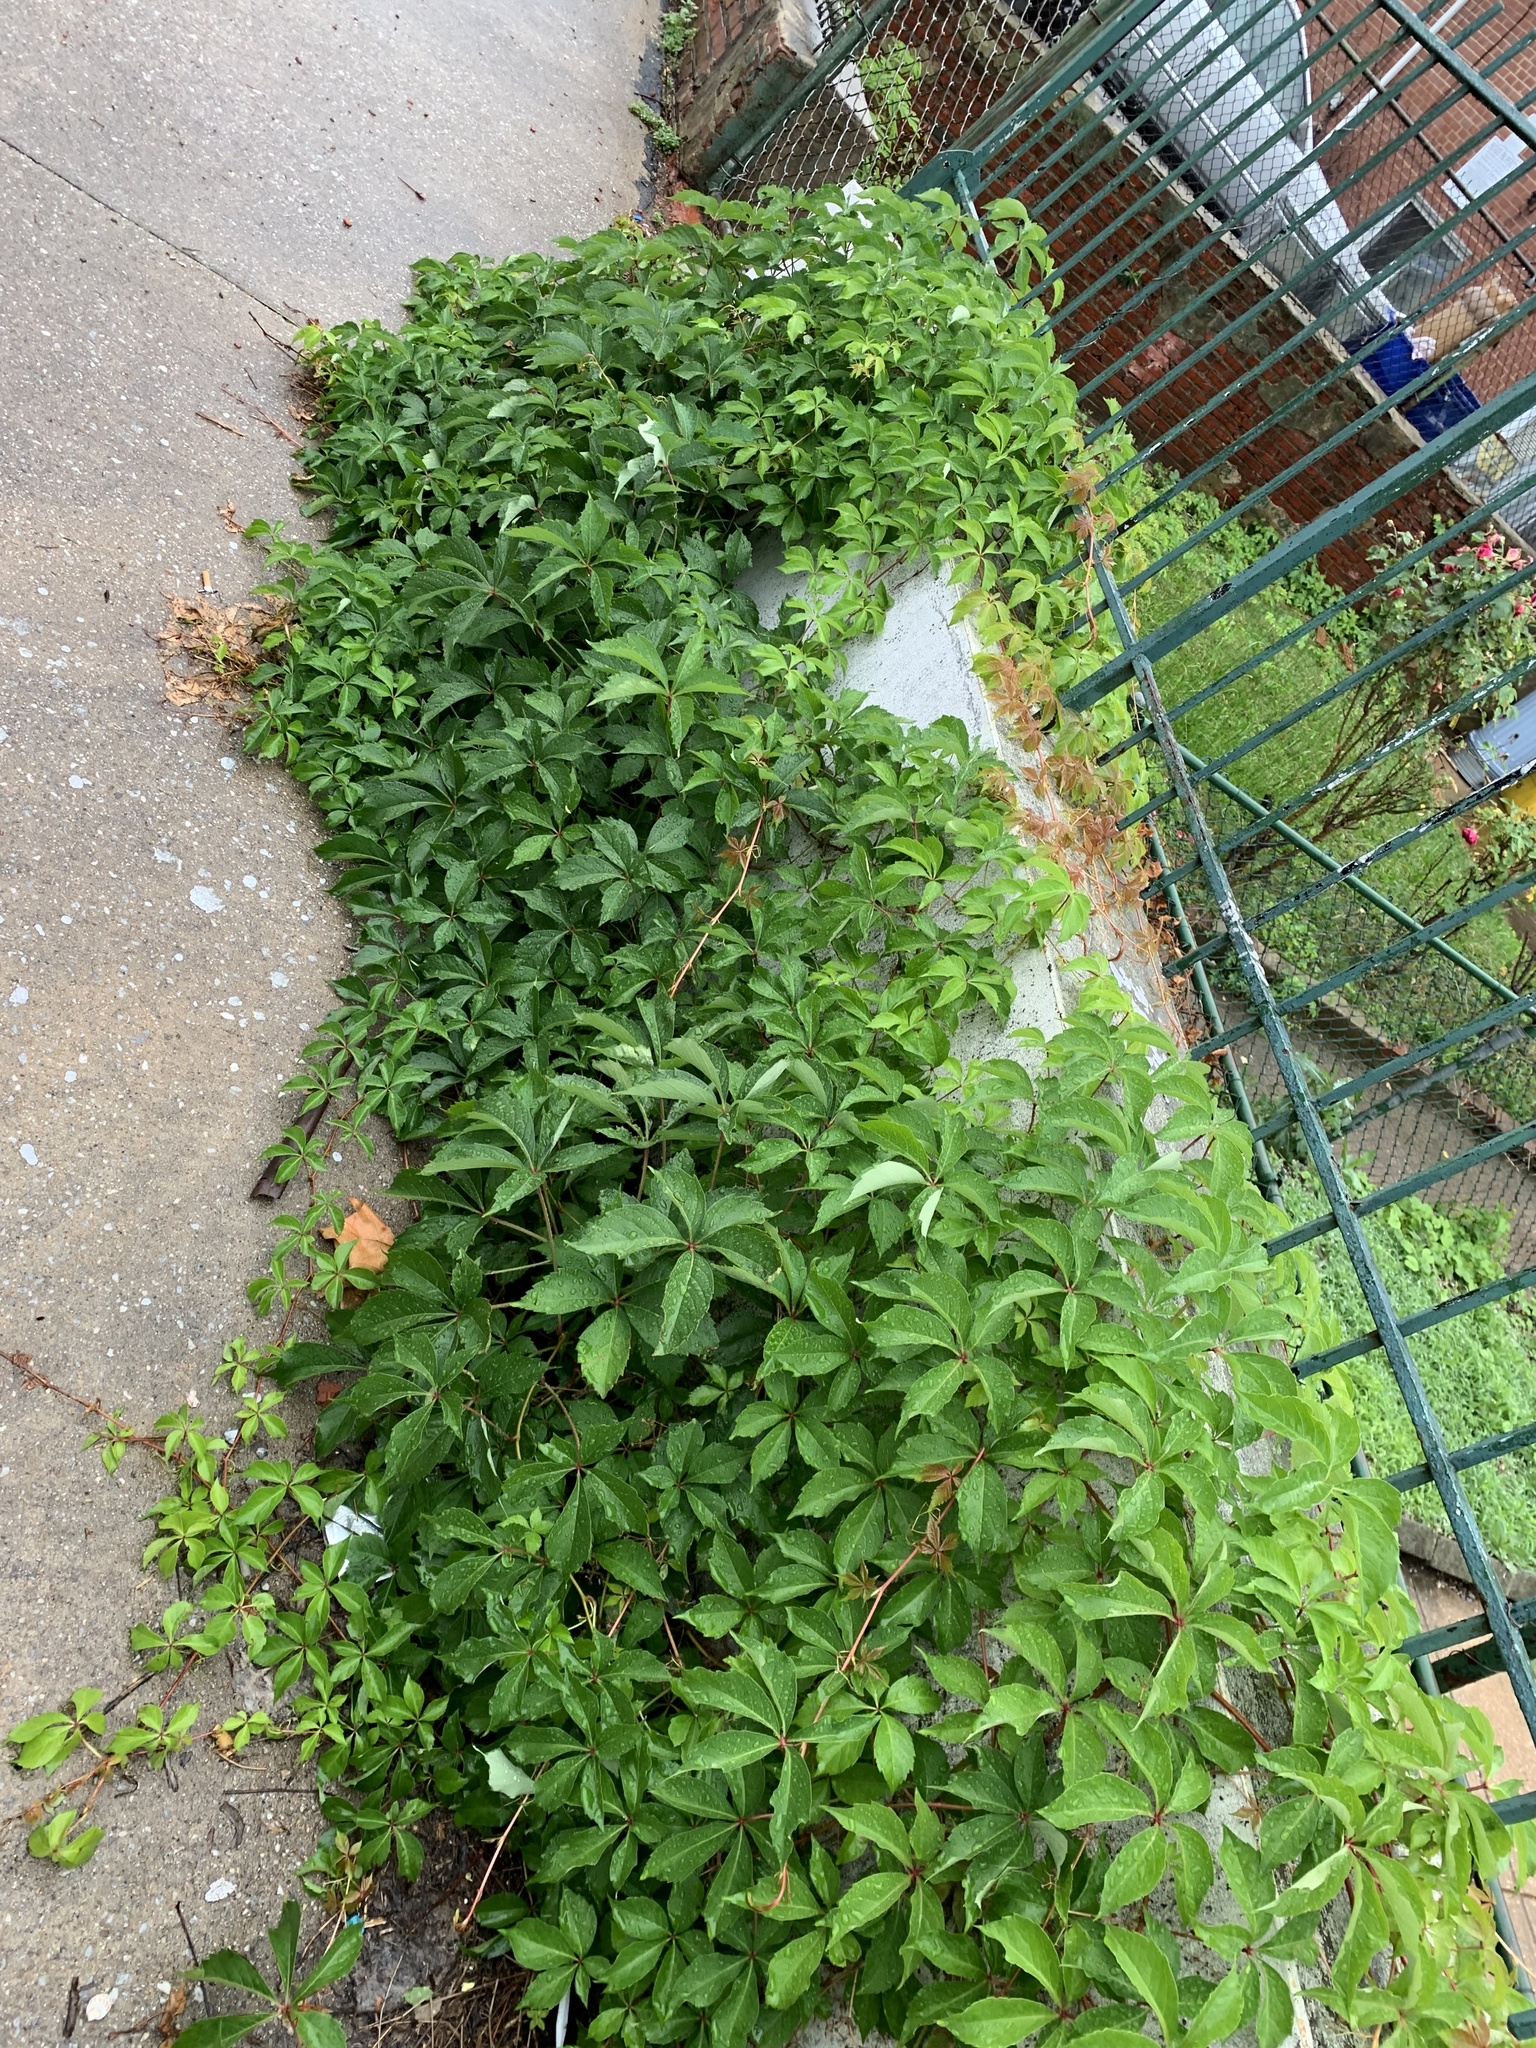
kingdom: Plantae
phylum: Tracheophyta
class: Magnoliopsida
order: Vitales
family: Vitaceae
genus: Parthenocissus
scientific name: Parthenocissus quinquefolia
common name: Virginia-creeper
